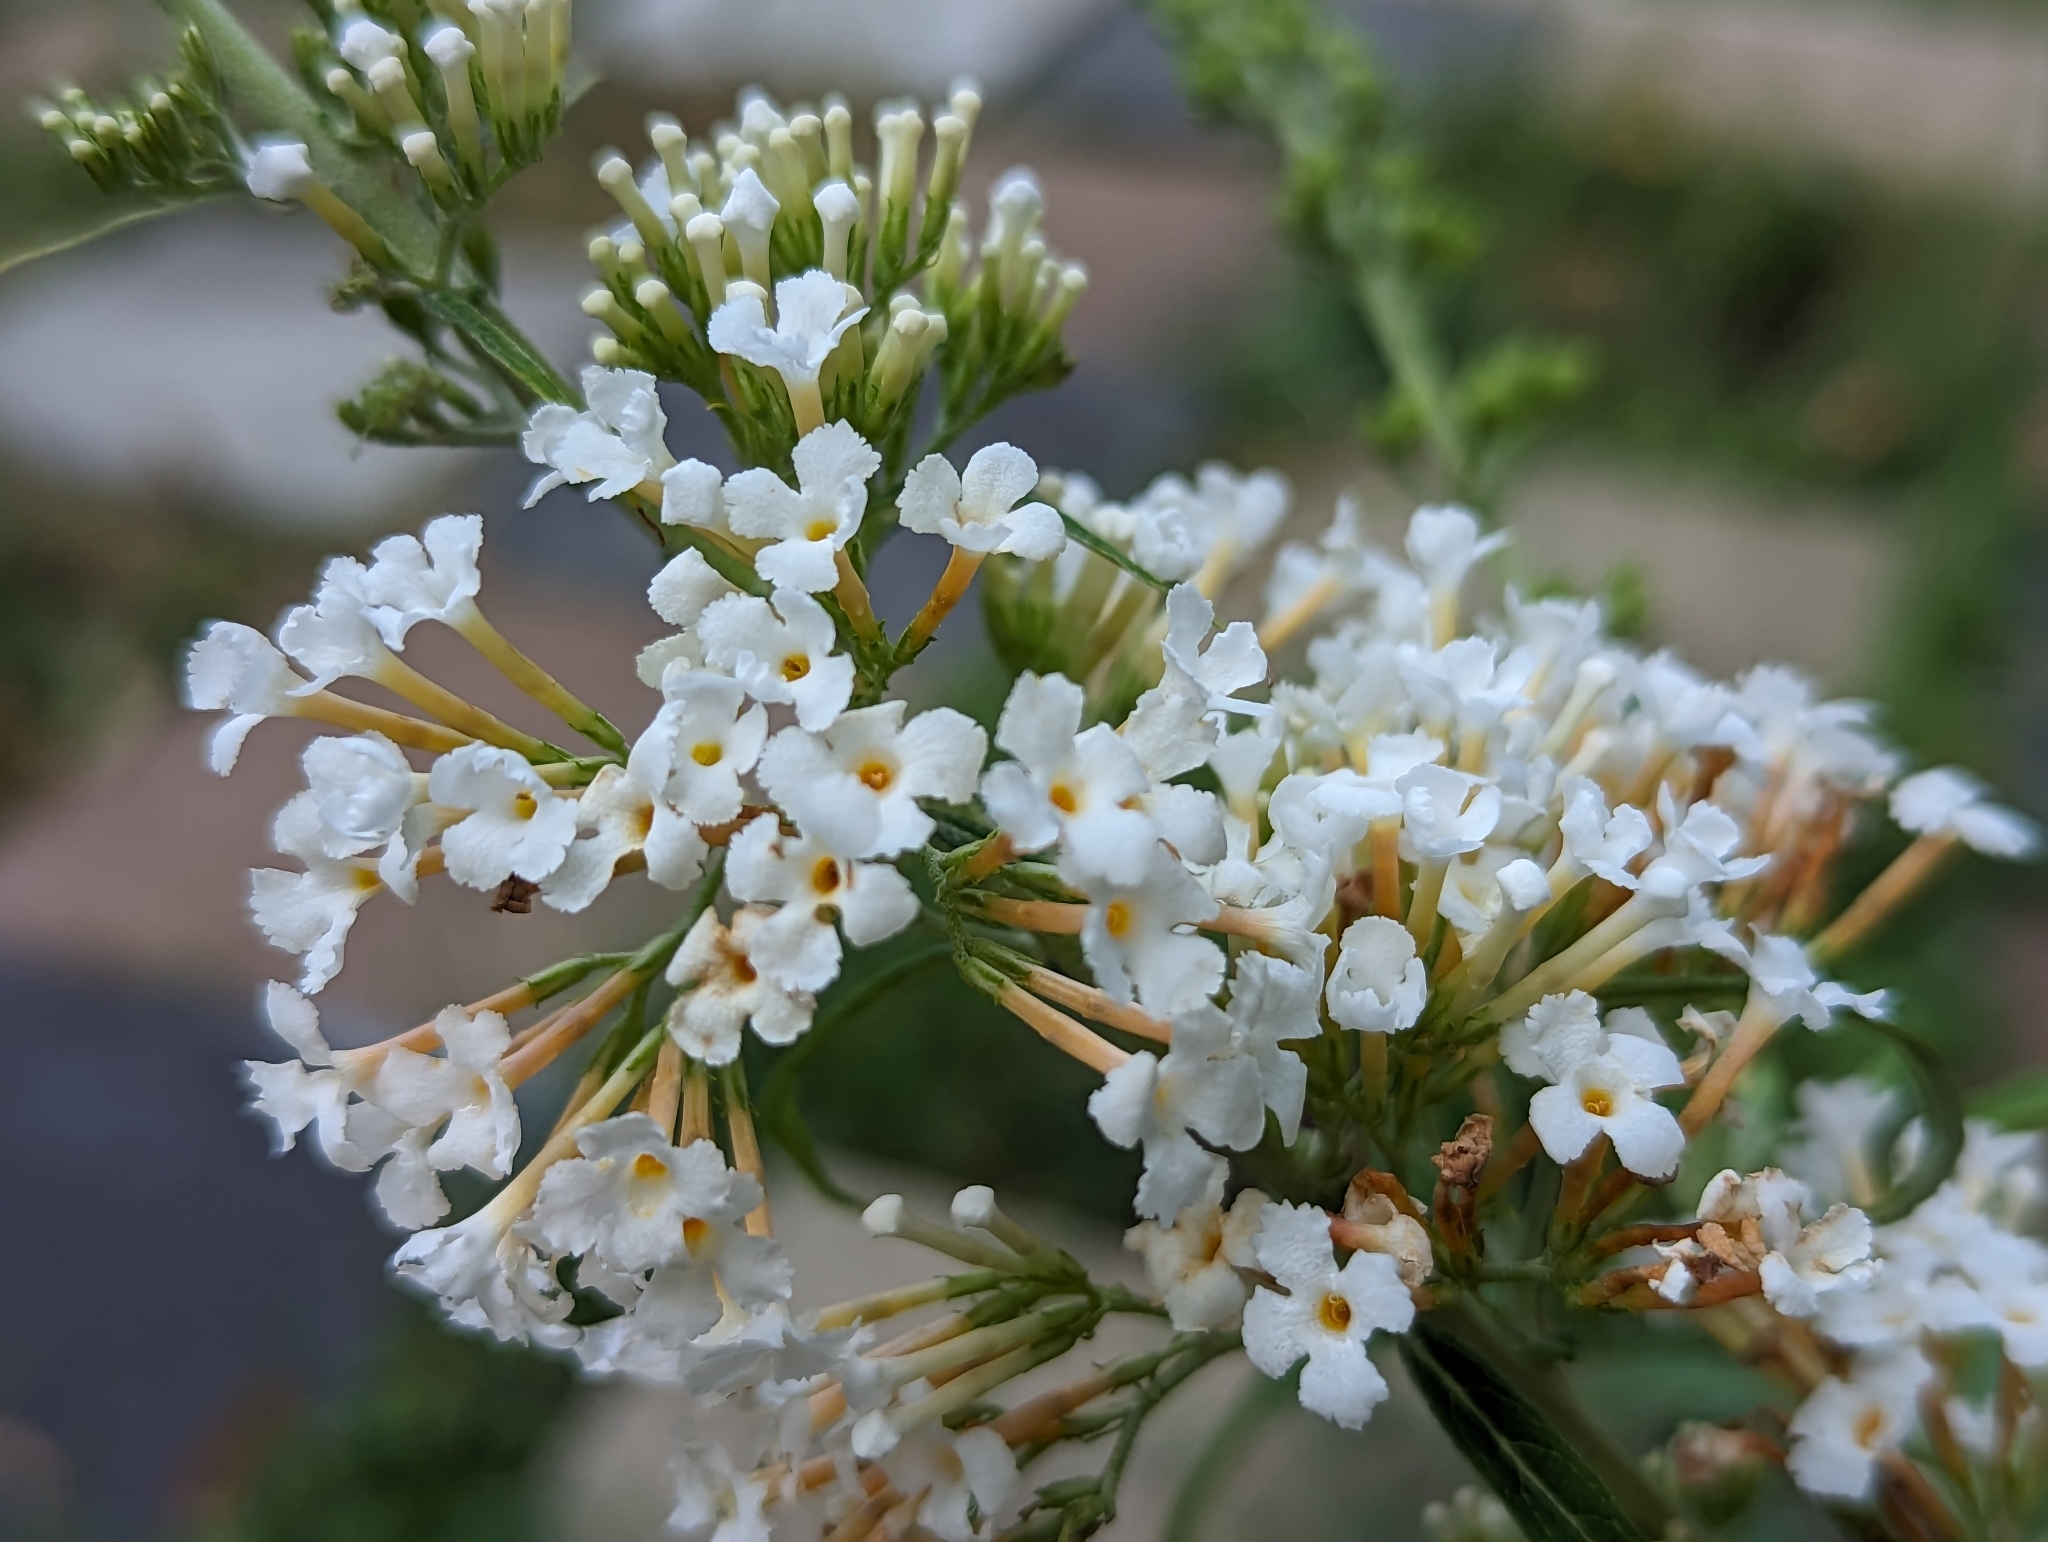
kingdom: Plantae
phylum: Tracheophyta
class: Magnoliopsida
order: Lamiales
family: Scrophulariaceae
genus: Buddleja
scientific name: Buddleja davidii
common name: Butterfly-bush
